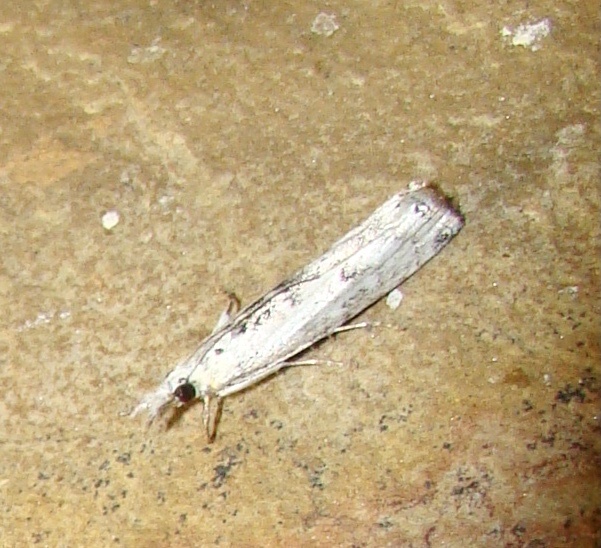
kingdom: Animalia
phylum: Arthropoda
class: Insecta
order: Lepidoptera
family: Crambidae
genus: Crambus
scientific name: Crambus sparsellus
